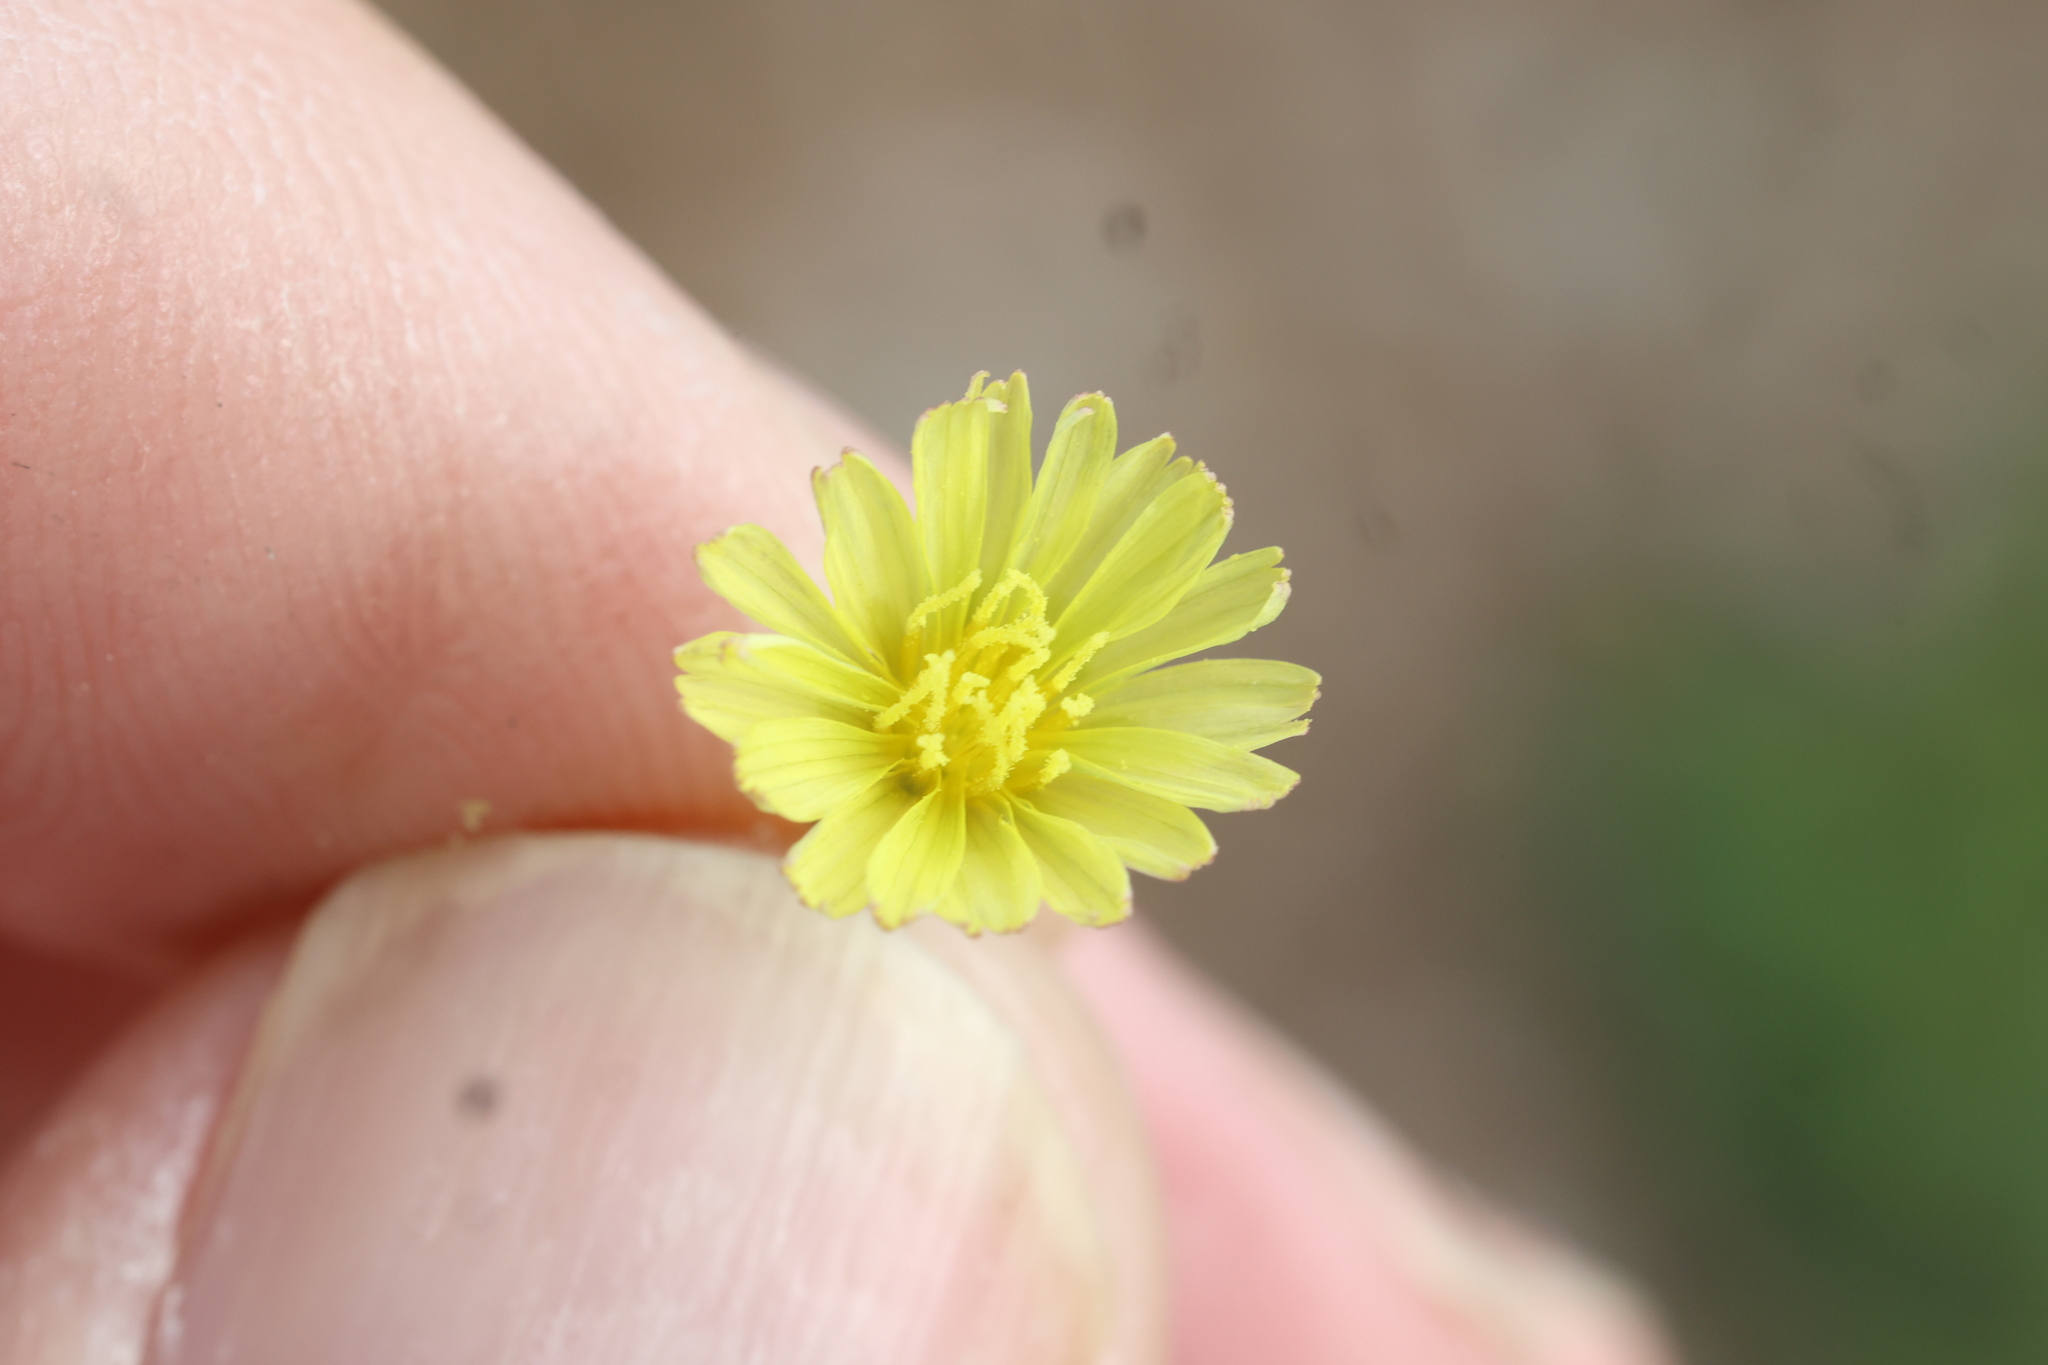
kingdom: Plantae
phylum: Tracheophyta
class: Magnoliopsida
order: Asterales
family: Asteraceae
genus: Lactuca
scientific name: Lactuca serriola
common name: Prickly lettuce
